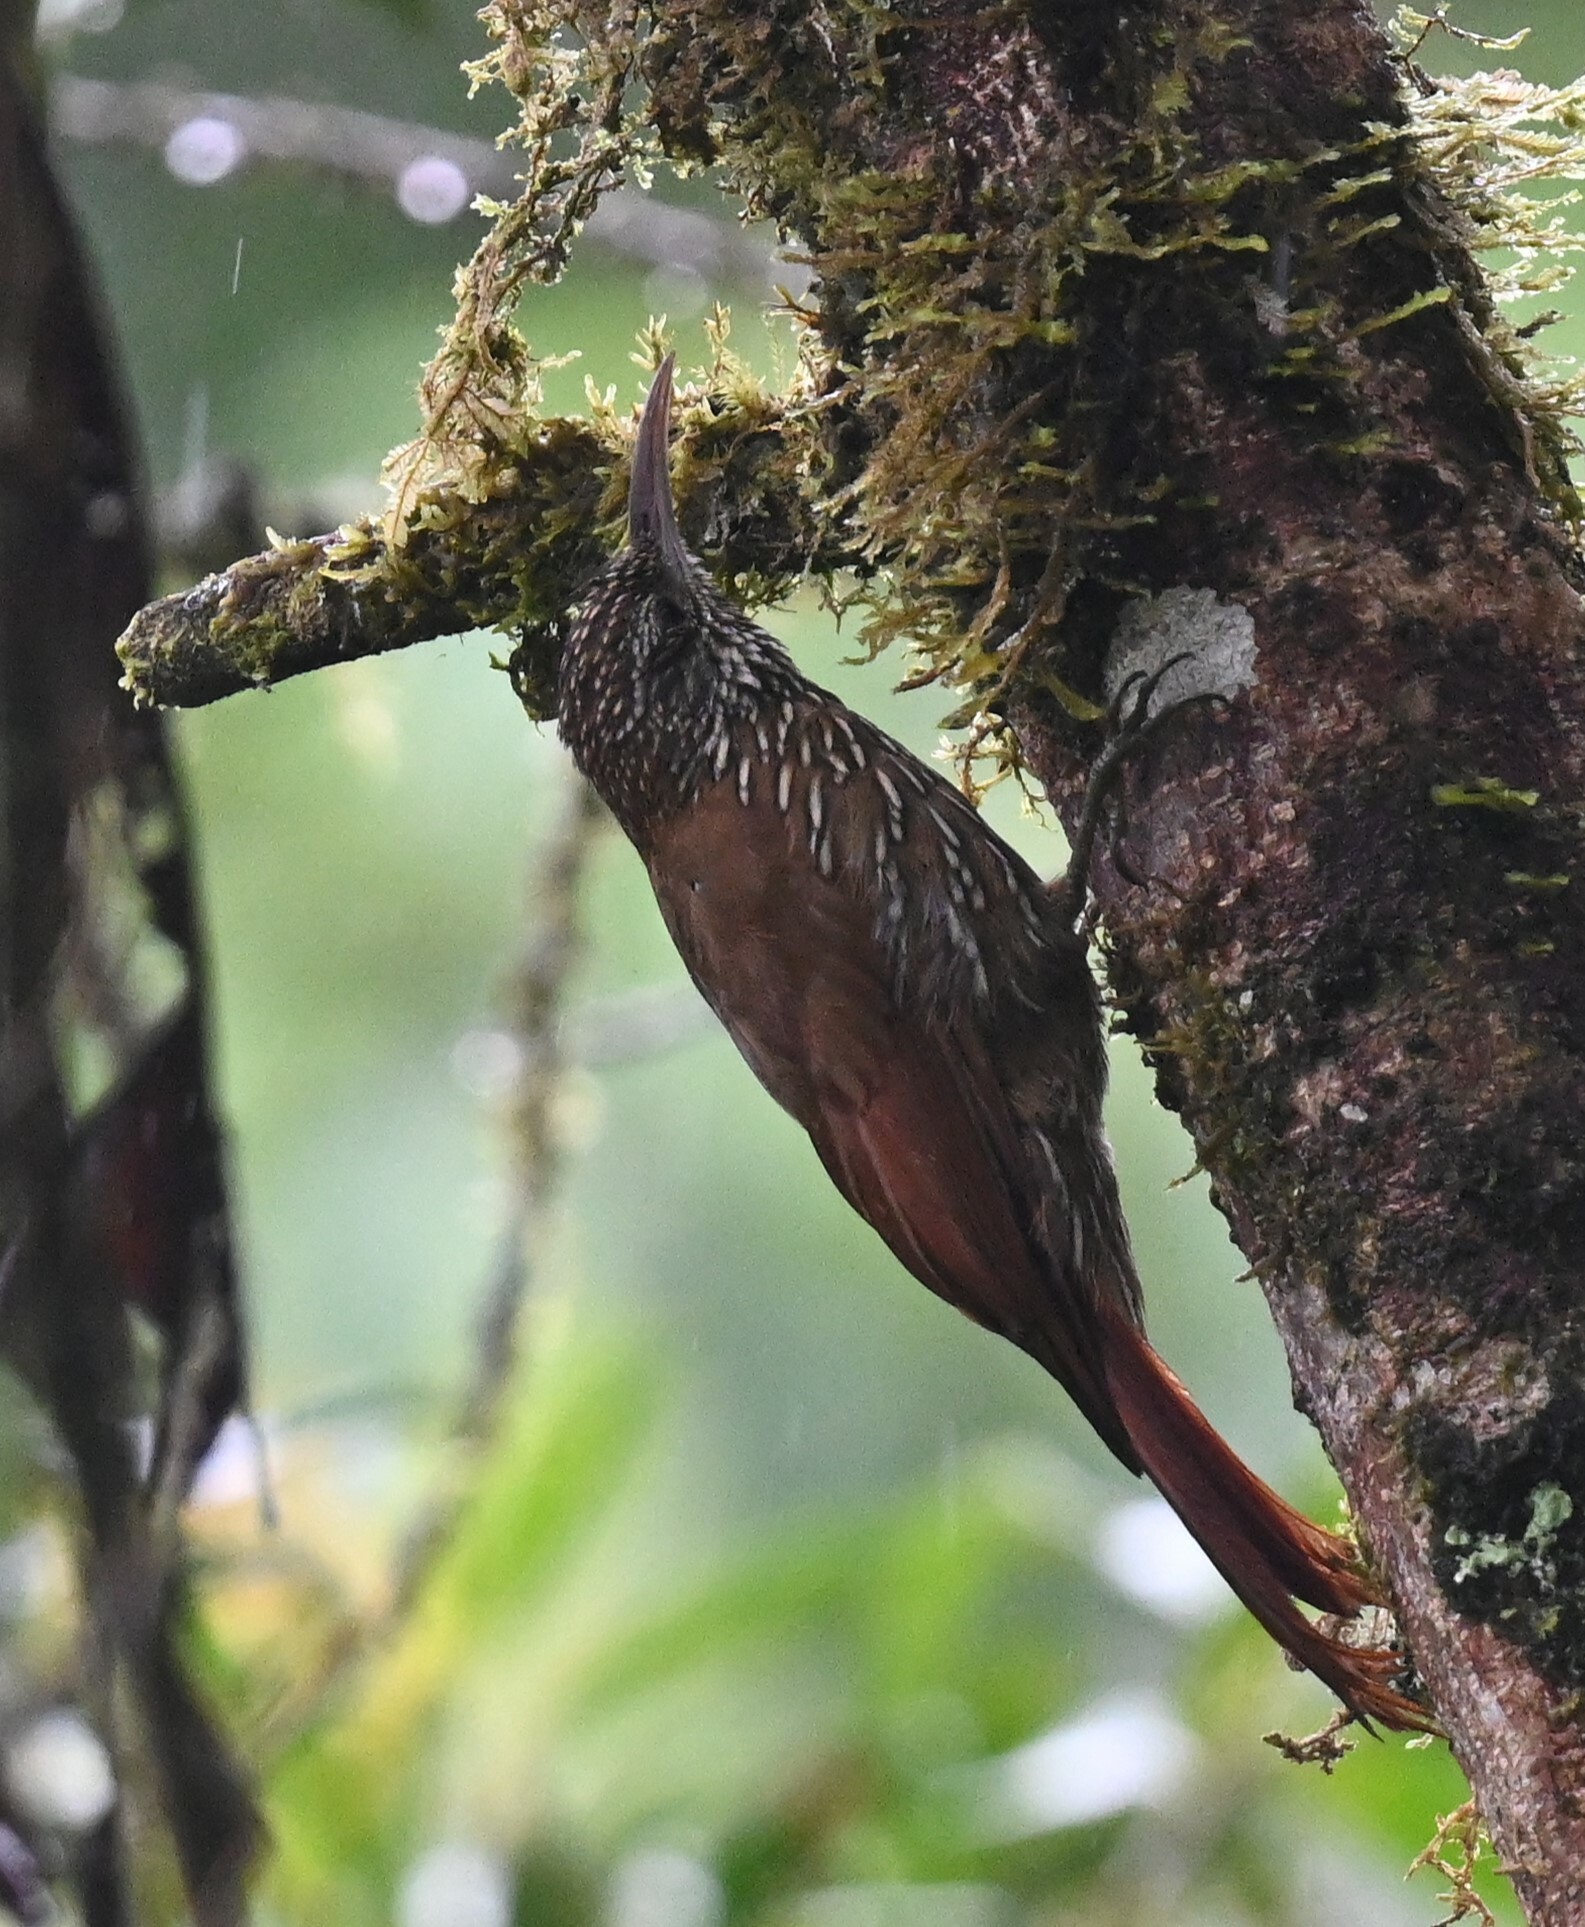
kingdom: Animalia
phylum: Chordata
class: Aves
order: Passeriformes
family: Furnariidae
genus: Lepidocolaptes
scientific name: Lepidocolaptes lacrymiger
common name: Montane woodcreeper
